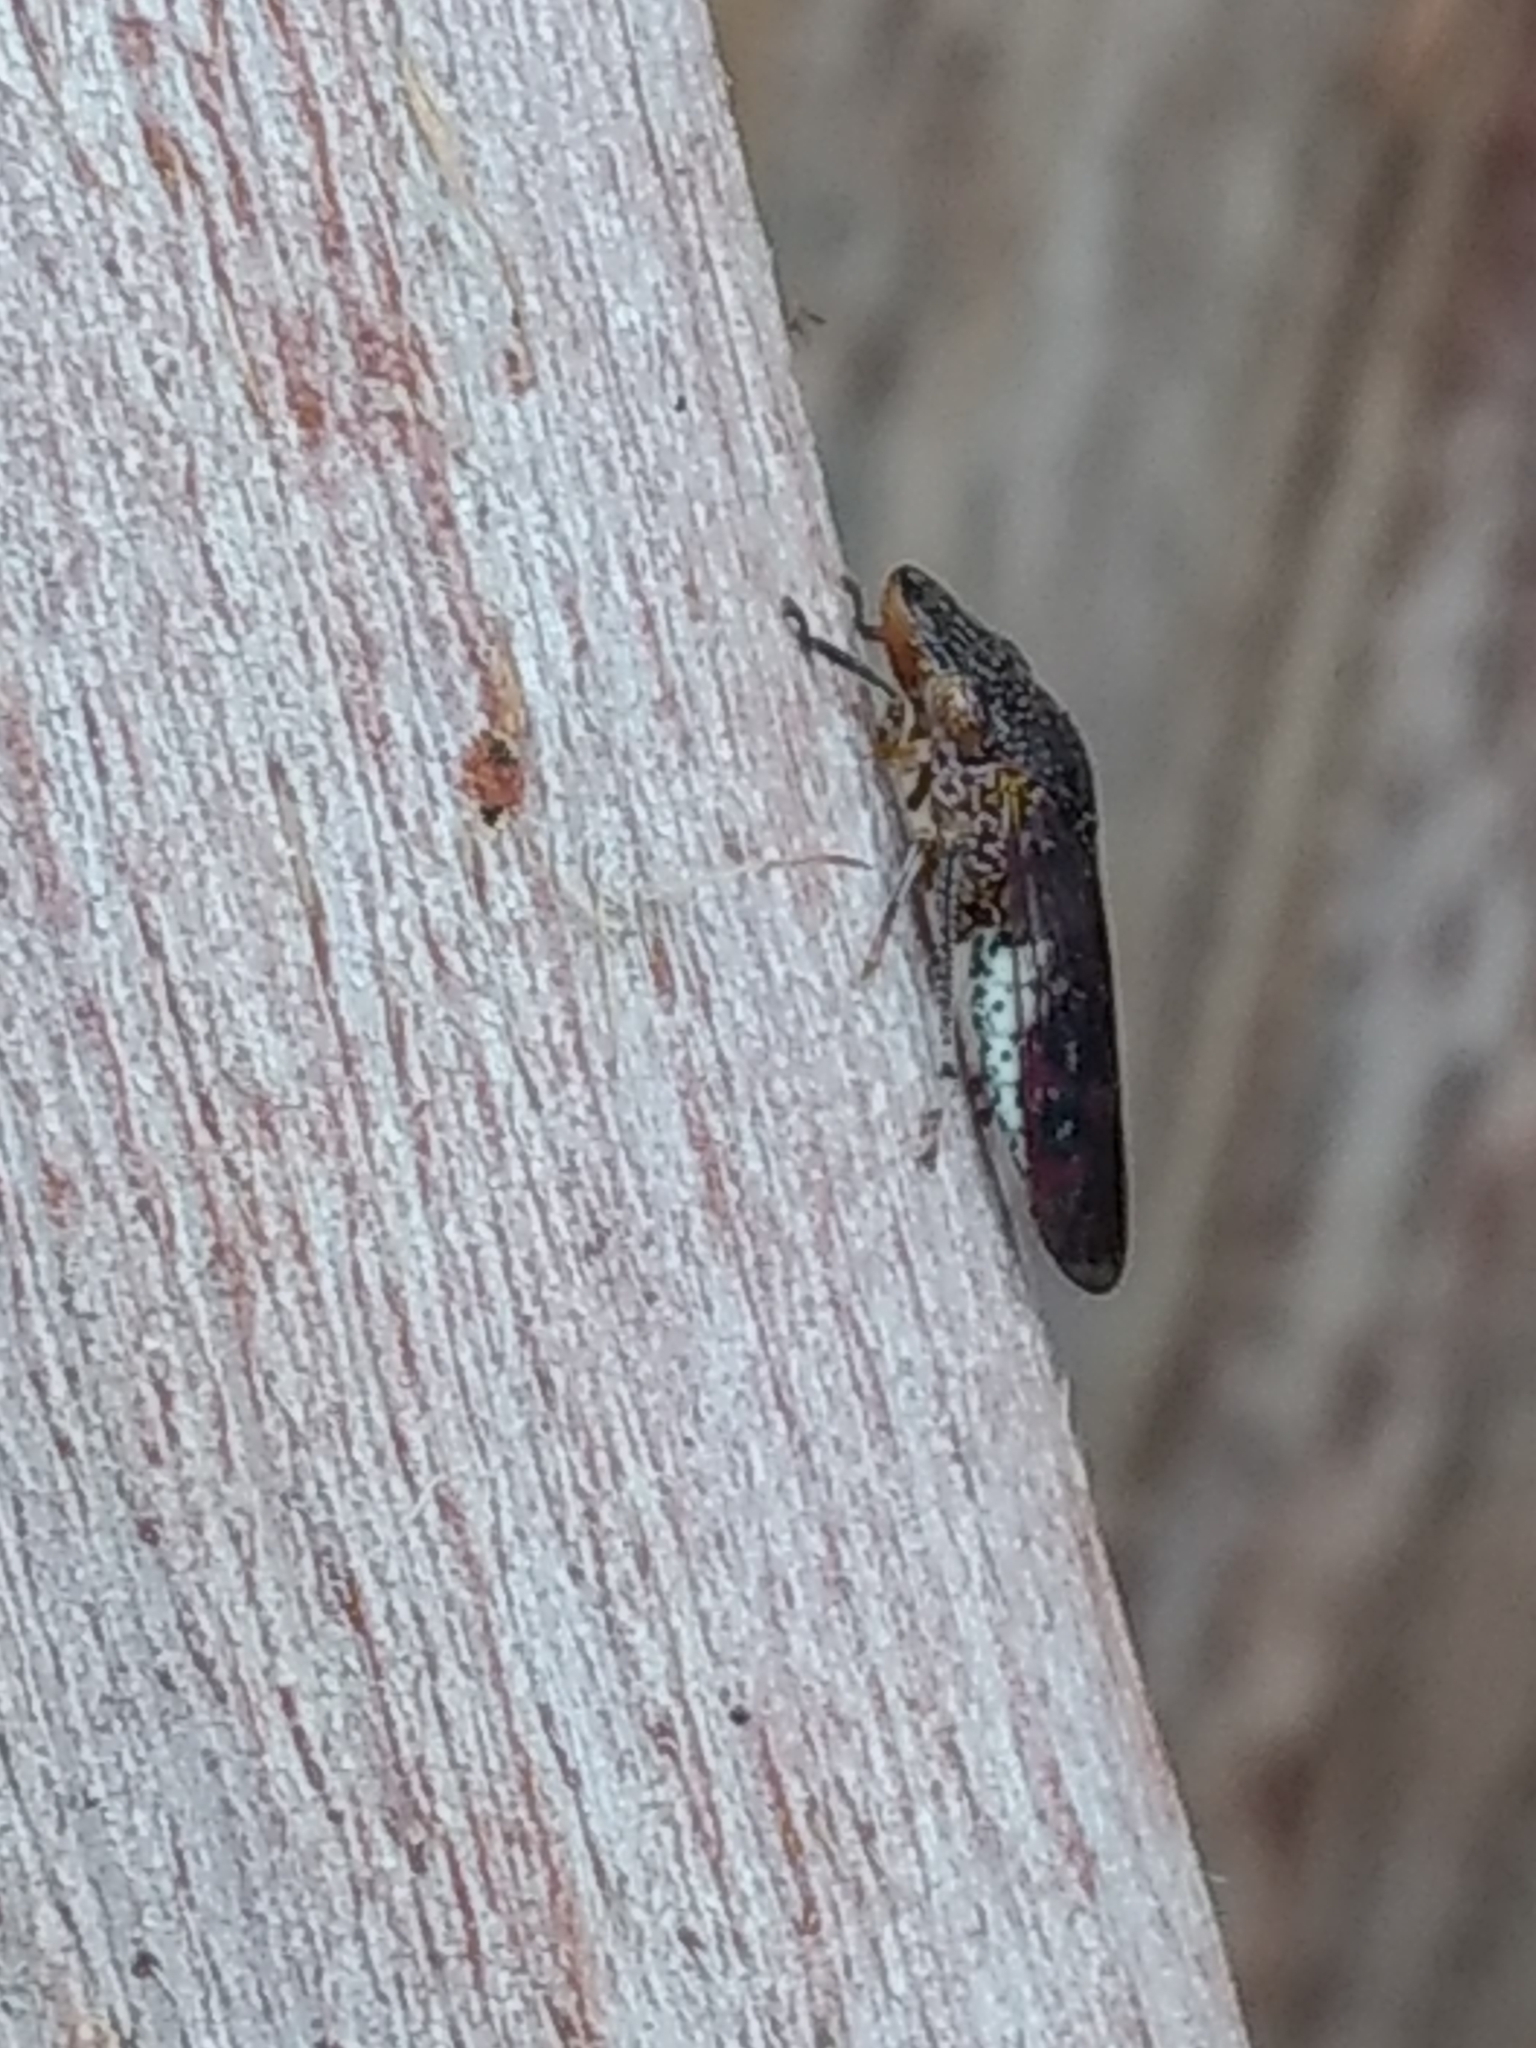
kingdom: Animalia
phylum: Arthropoda
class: Insecta
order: Hemiptera
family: Cicadellidae
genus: Homalodisca
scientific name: Homalodisca liturata
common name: Lacertate sharpshooter
